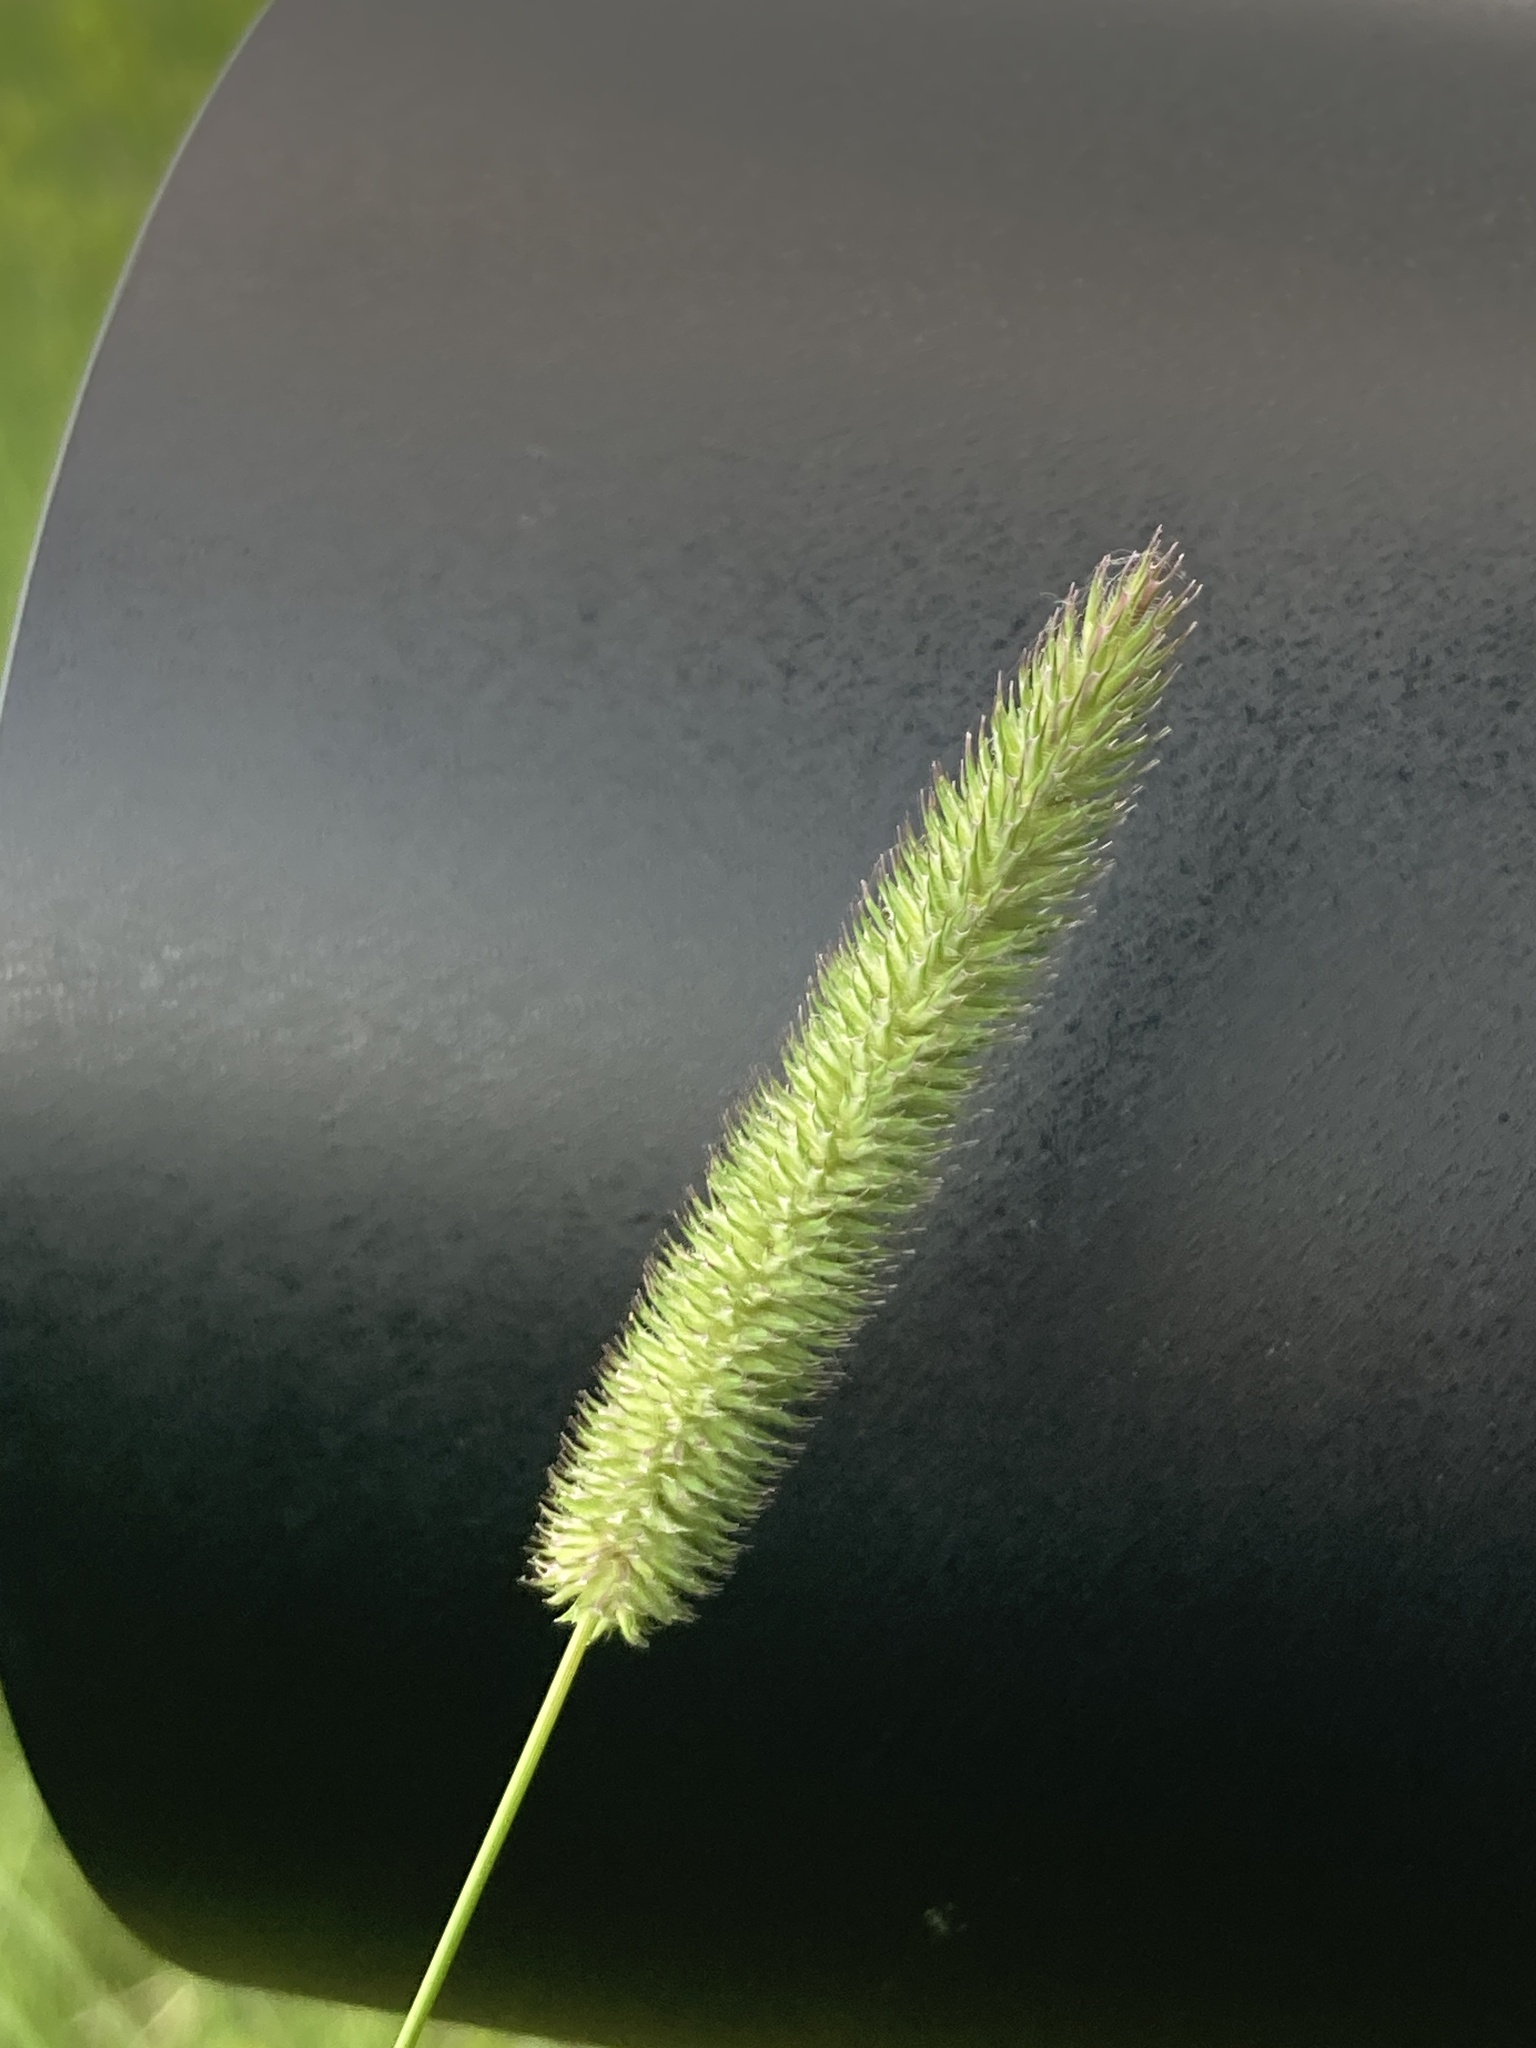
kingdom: Plantae
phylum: Tracheophyta
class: Liliopsida
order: Poales
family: Poaceae
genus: Phleum
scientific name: Phleum pratense
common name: Timothy grass
